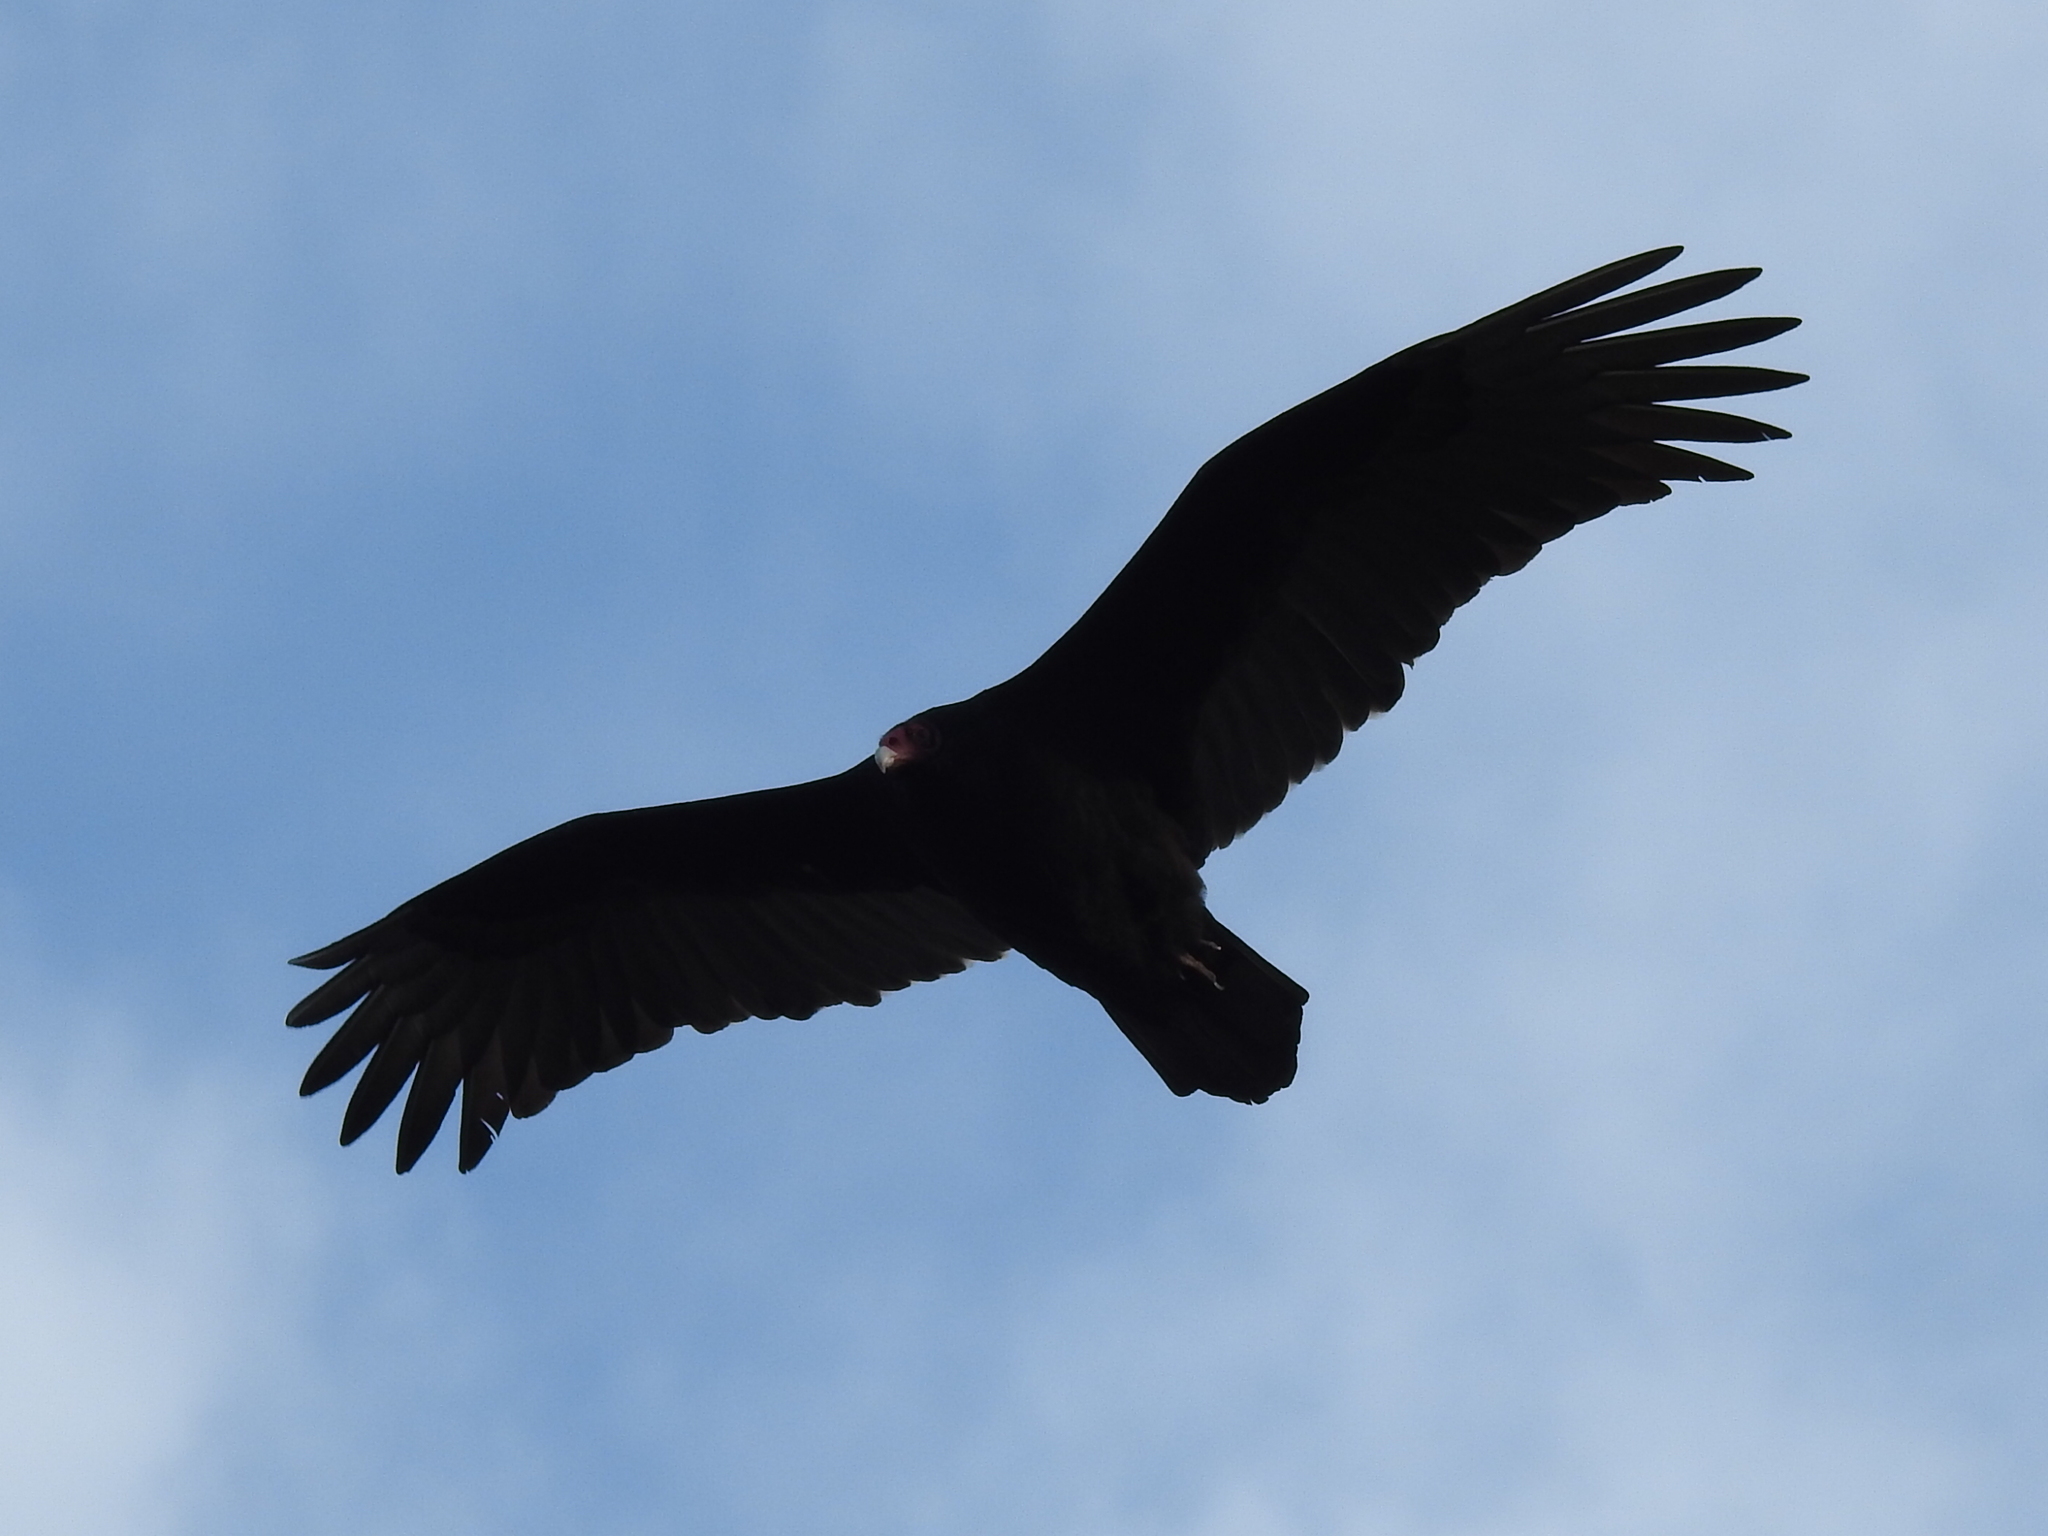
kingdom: Animalia
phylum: Chordata
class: Aves
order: Accipitriformes
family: Cathartidae
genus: Cathartes
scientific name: Cathartes aura
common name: Turkey vulture
